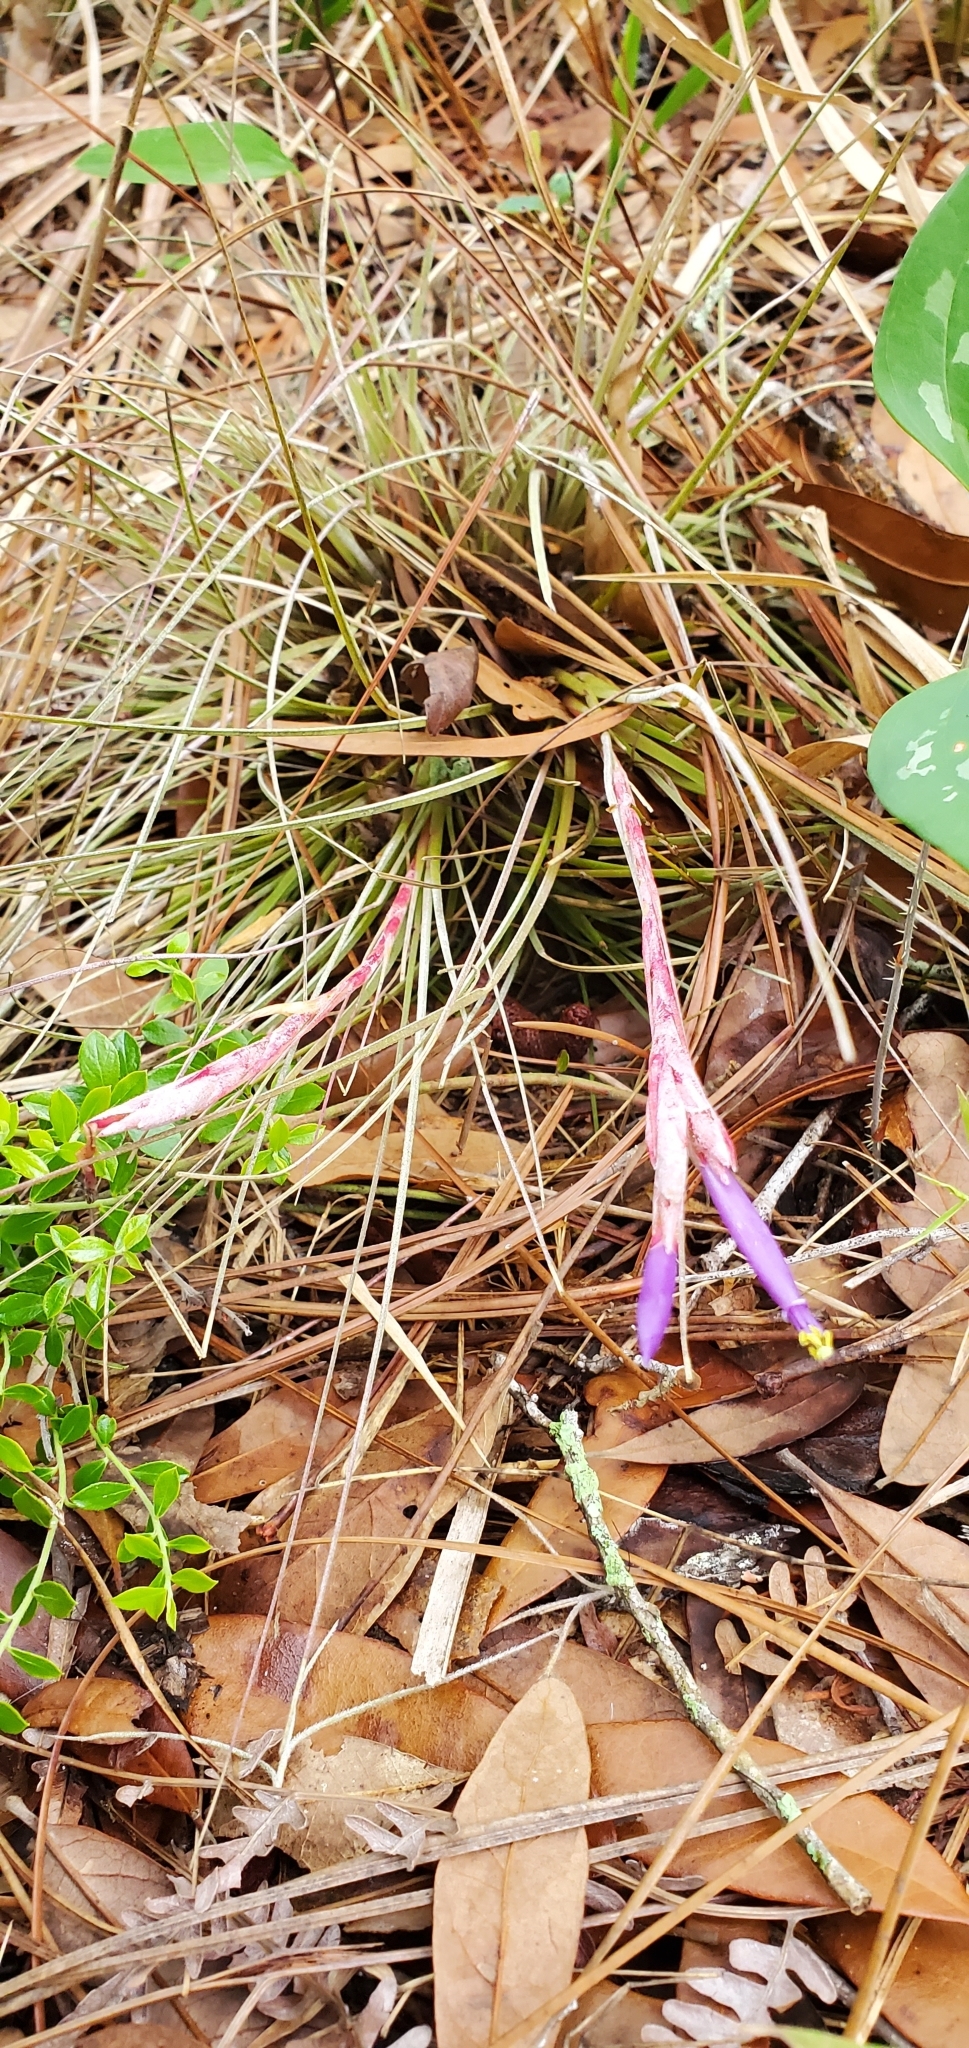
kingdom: Plantae
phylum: Tracheophyta
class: Liliopsida
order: Poales
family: Bromeliaceae
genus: Tillandsia
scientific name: Tillandsia bartramii
